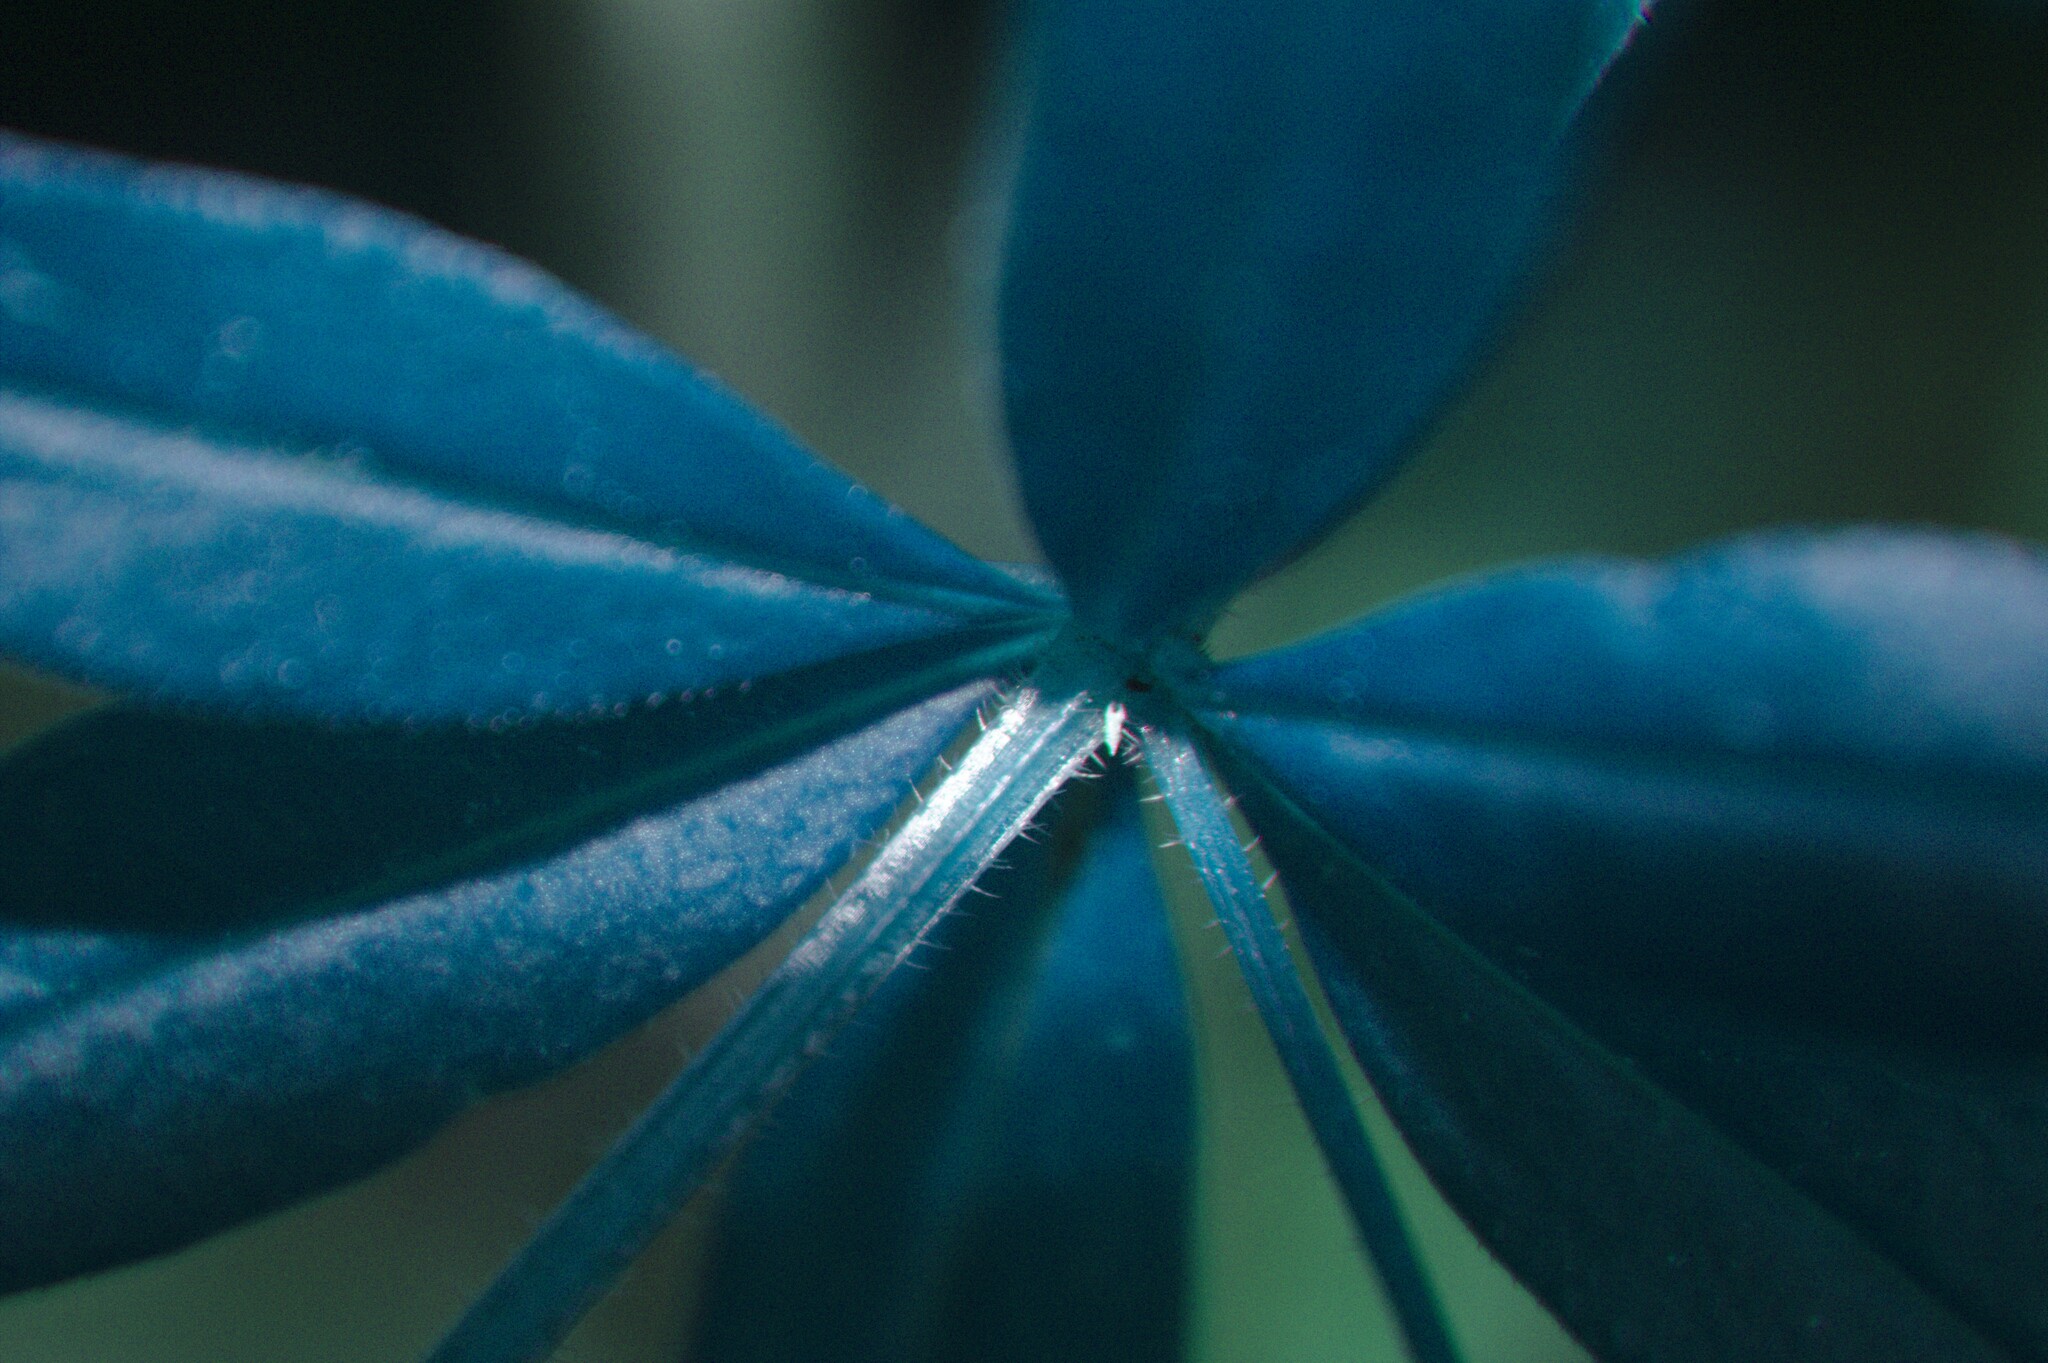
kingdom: Plantae
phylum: Tracheophyta
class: Magnoliopsida
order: Gentianales
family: Rubiaceae
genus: Galium
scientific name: Galium triflorum
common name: Fragrant bedstraw
